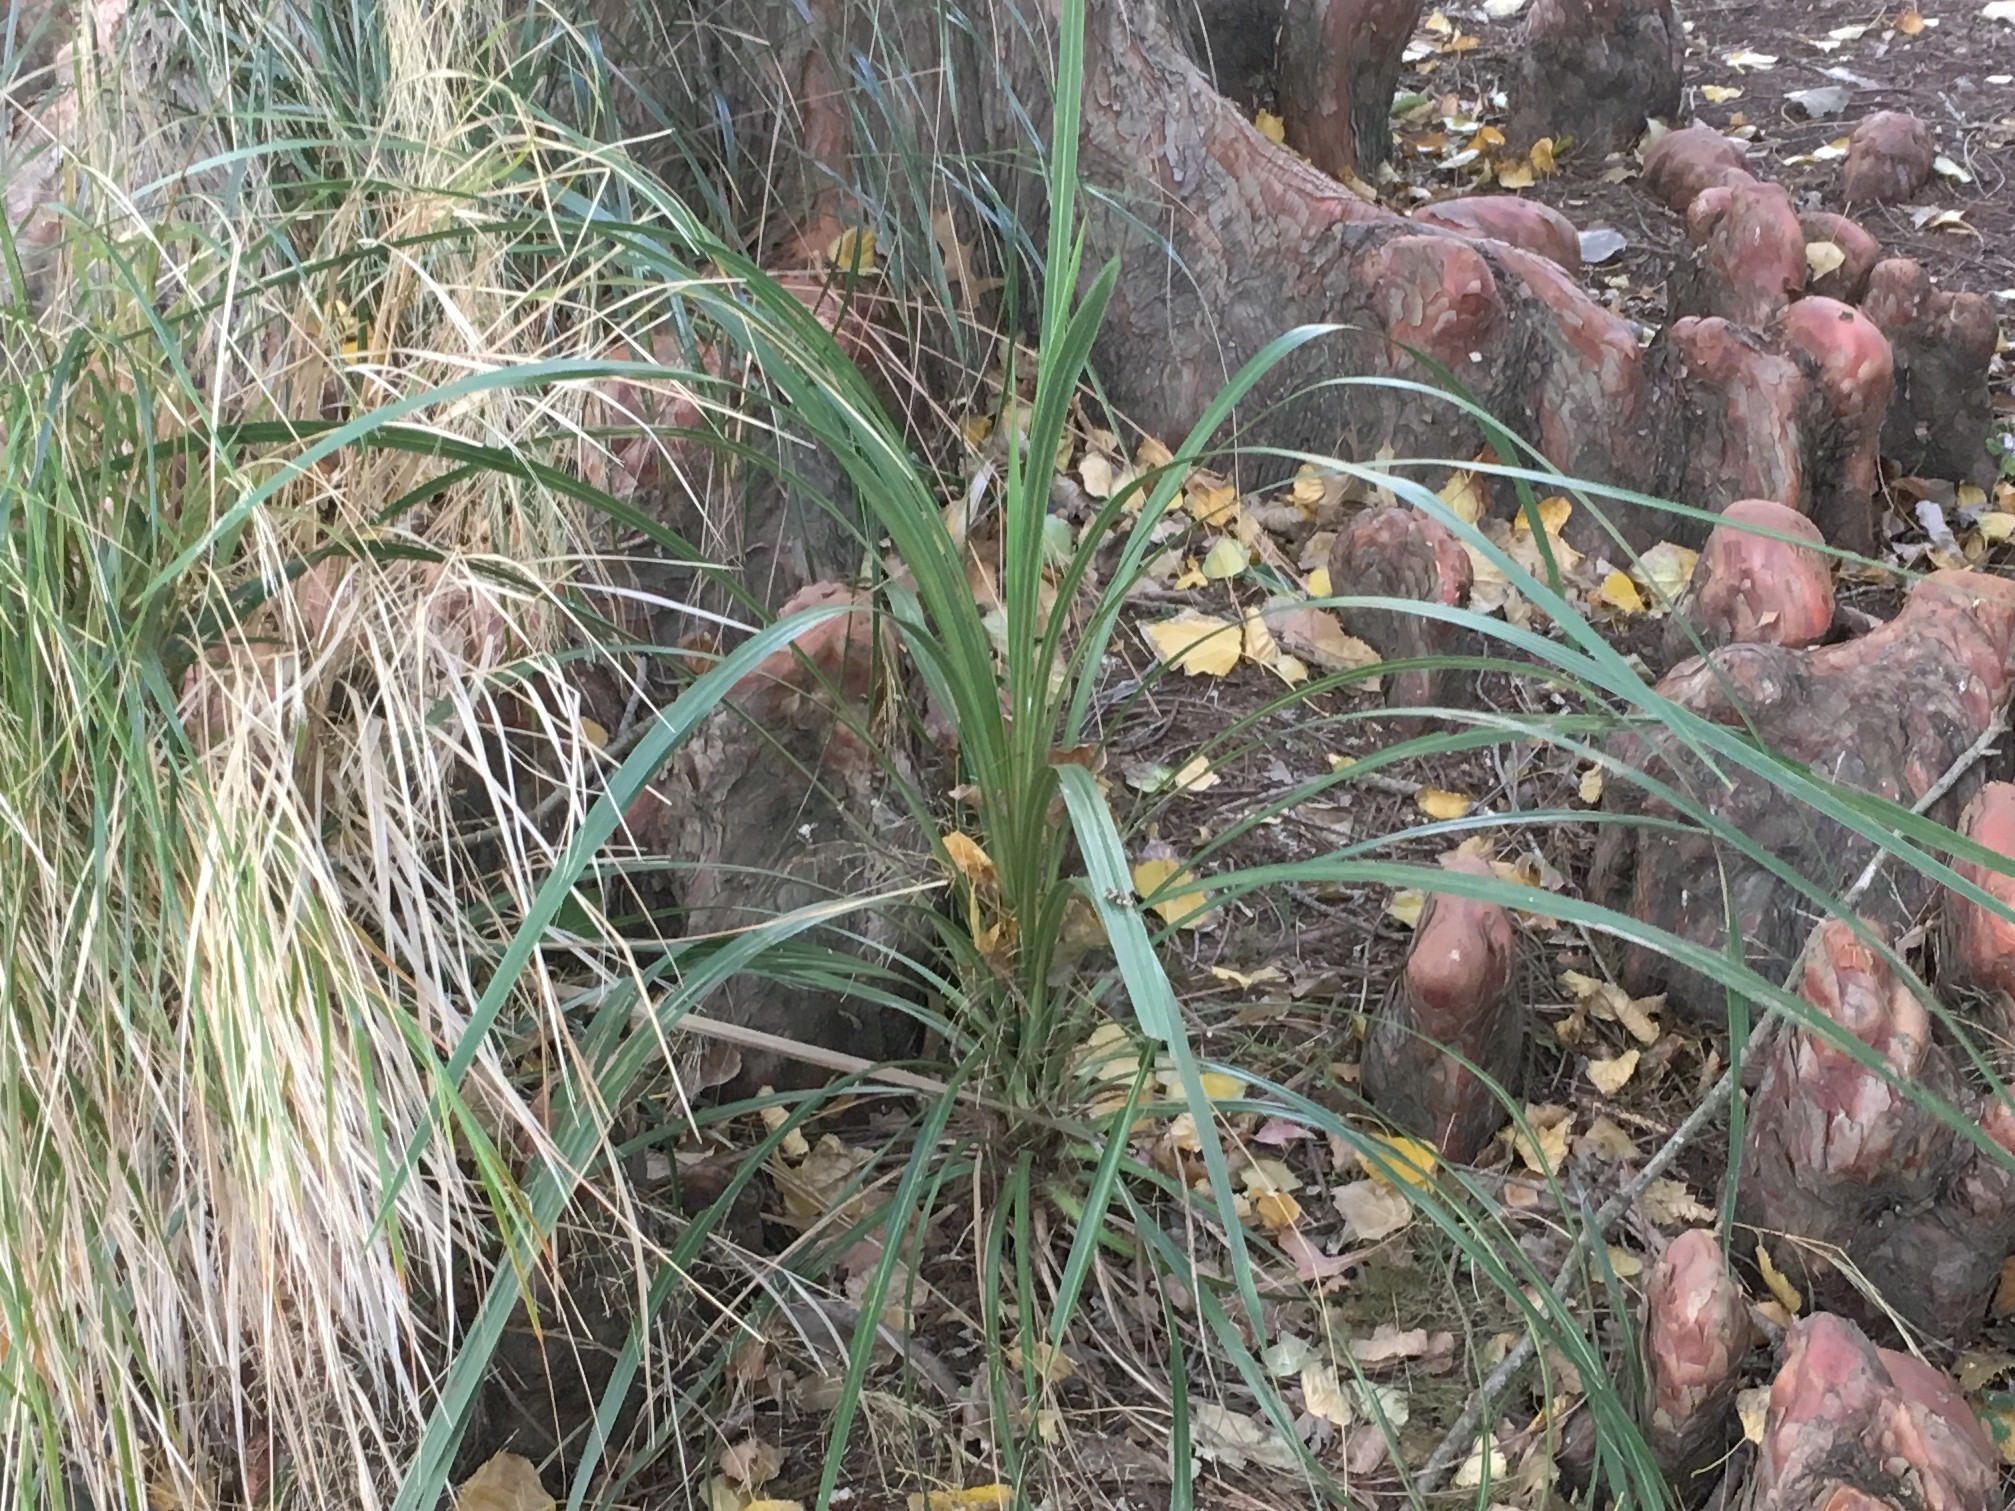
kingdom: Plantae
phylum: Tracheophyta
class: Liliopsida
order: Asparagales
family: Asparagaceae
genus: Cordyline
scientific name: Cordyline australis
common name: Cabbage-palm
